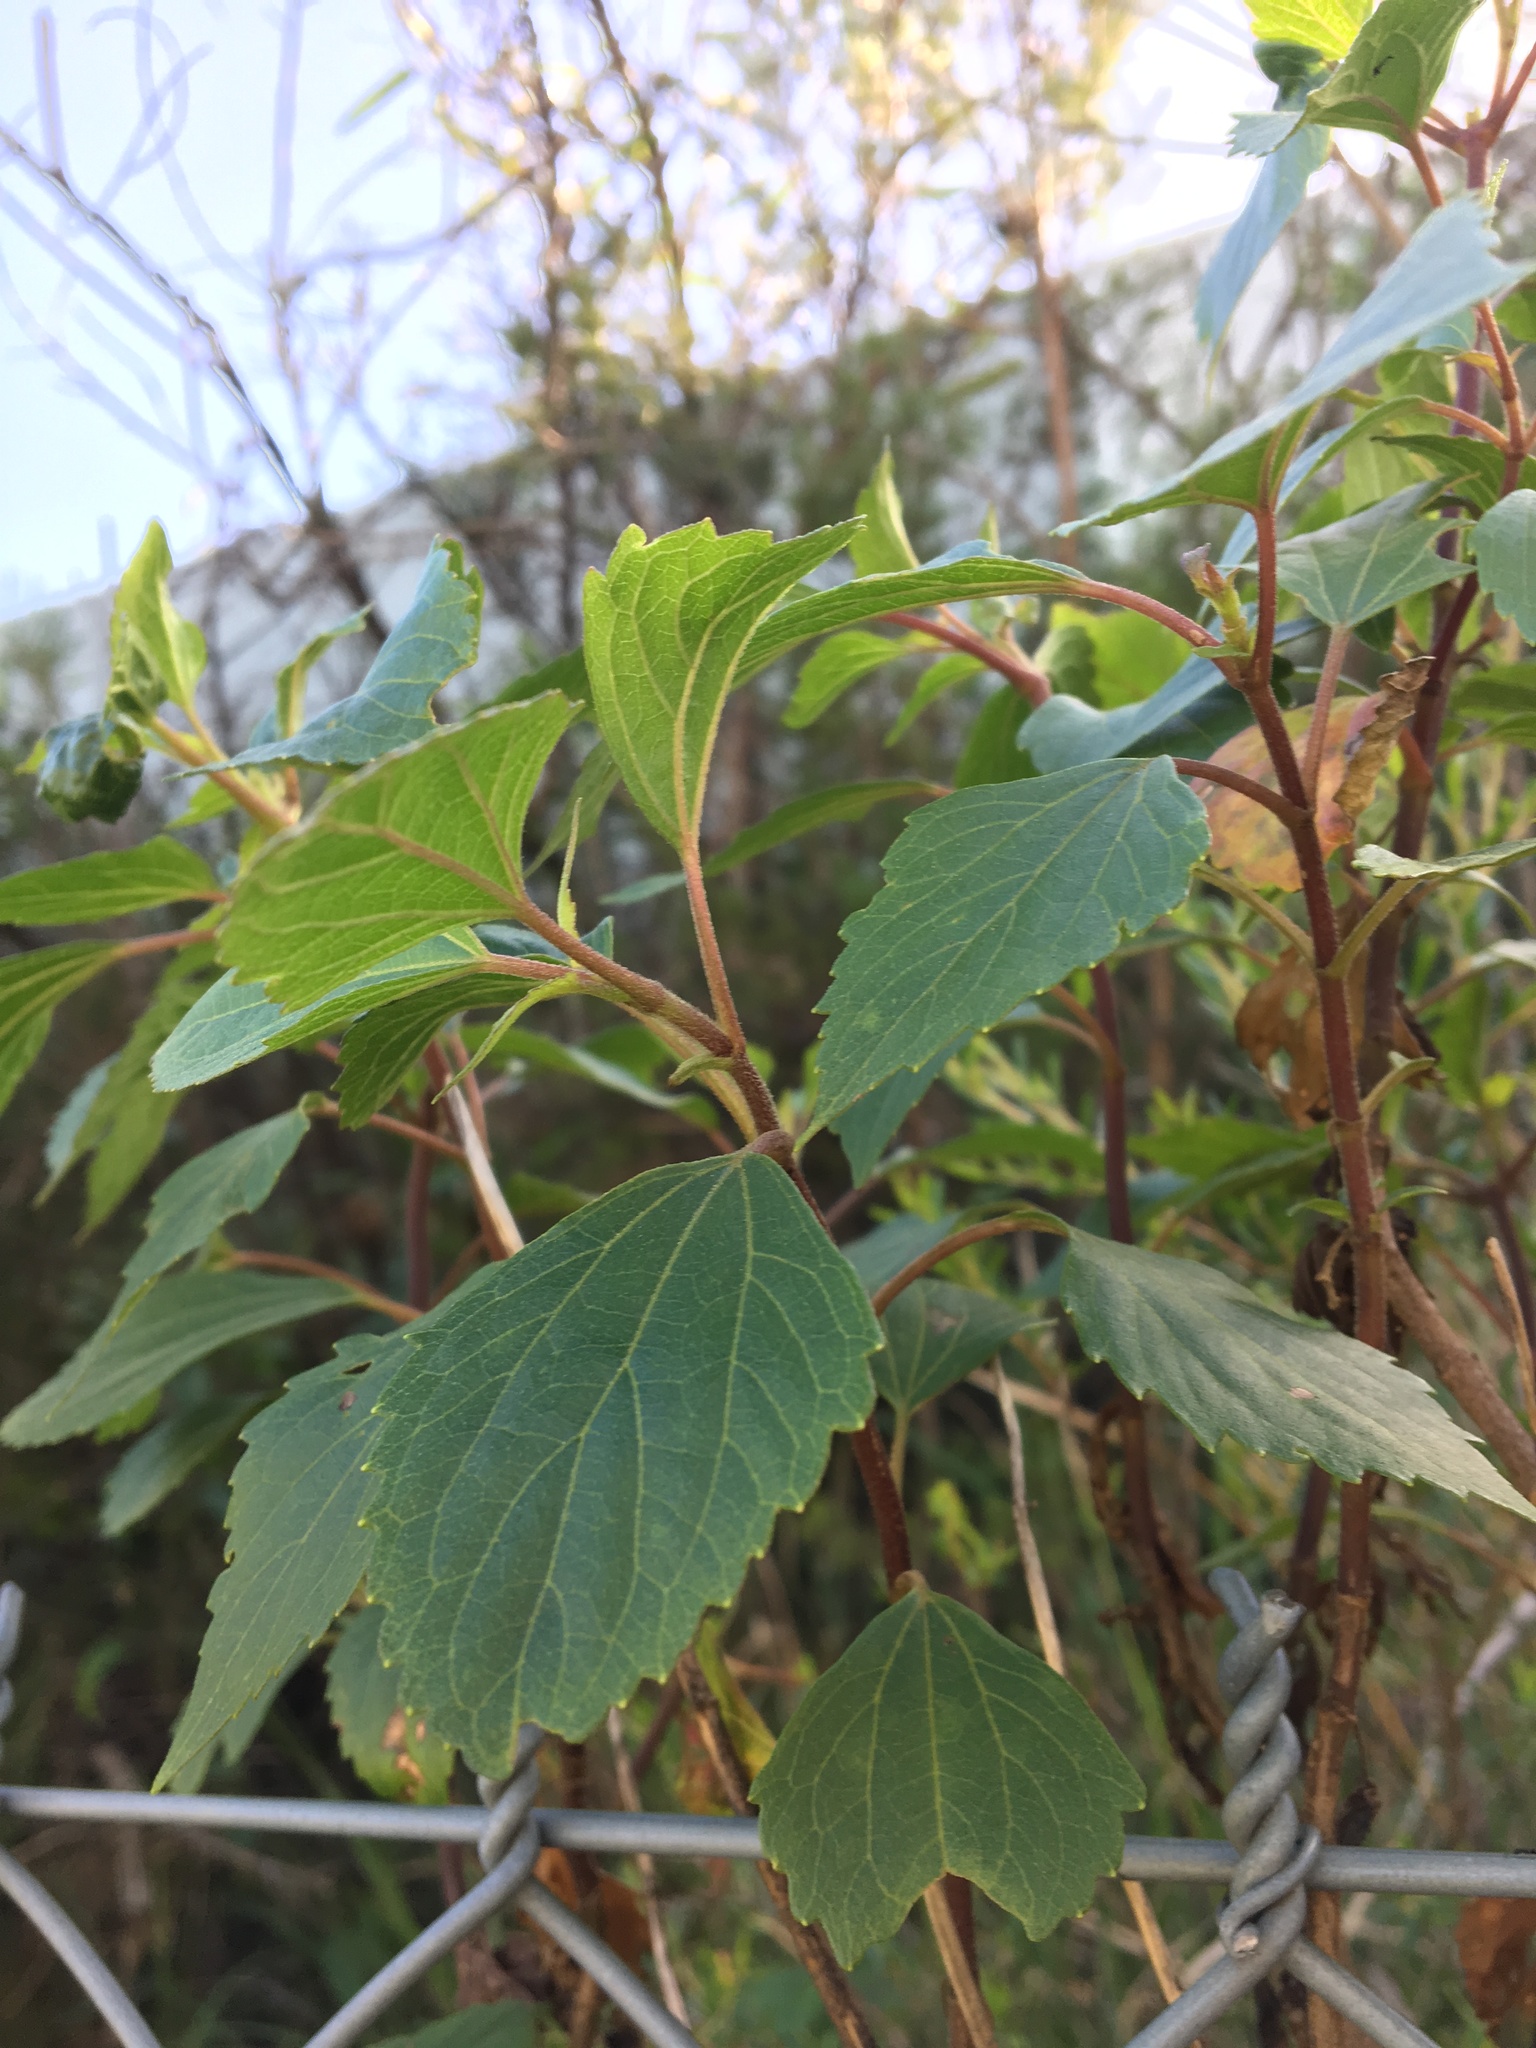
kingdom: Plantae
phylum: Tracheophyta
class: Magnoliopsida
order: Asterales
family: Asteraceae
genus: Ageratina
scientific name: Ageratina adenophora
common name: Sticky snakeroot
